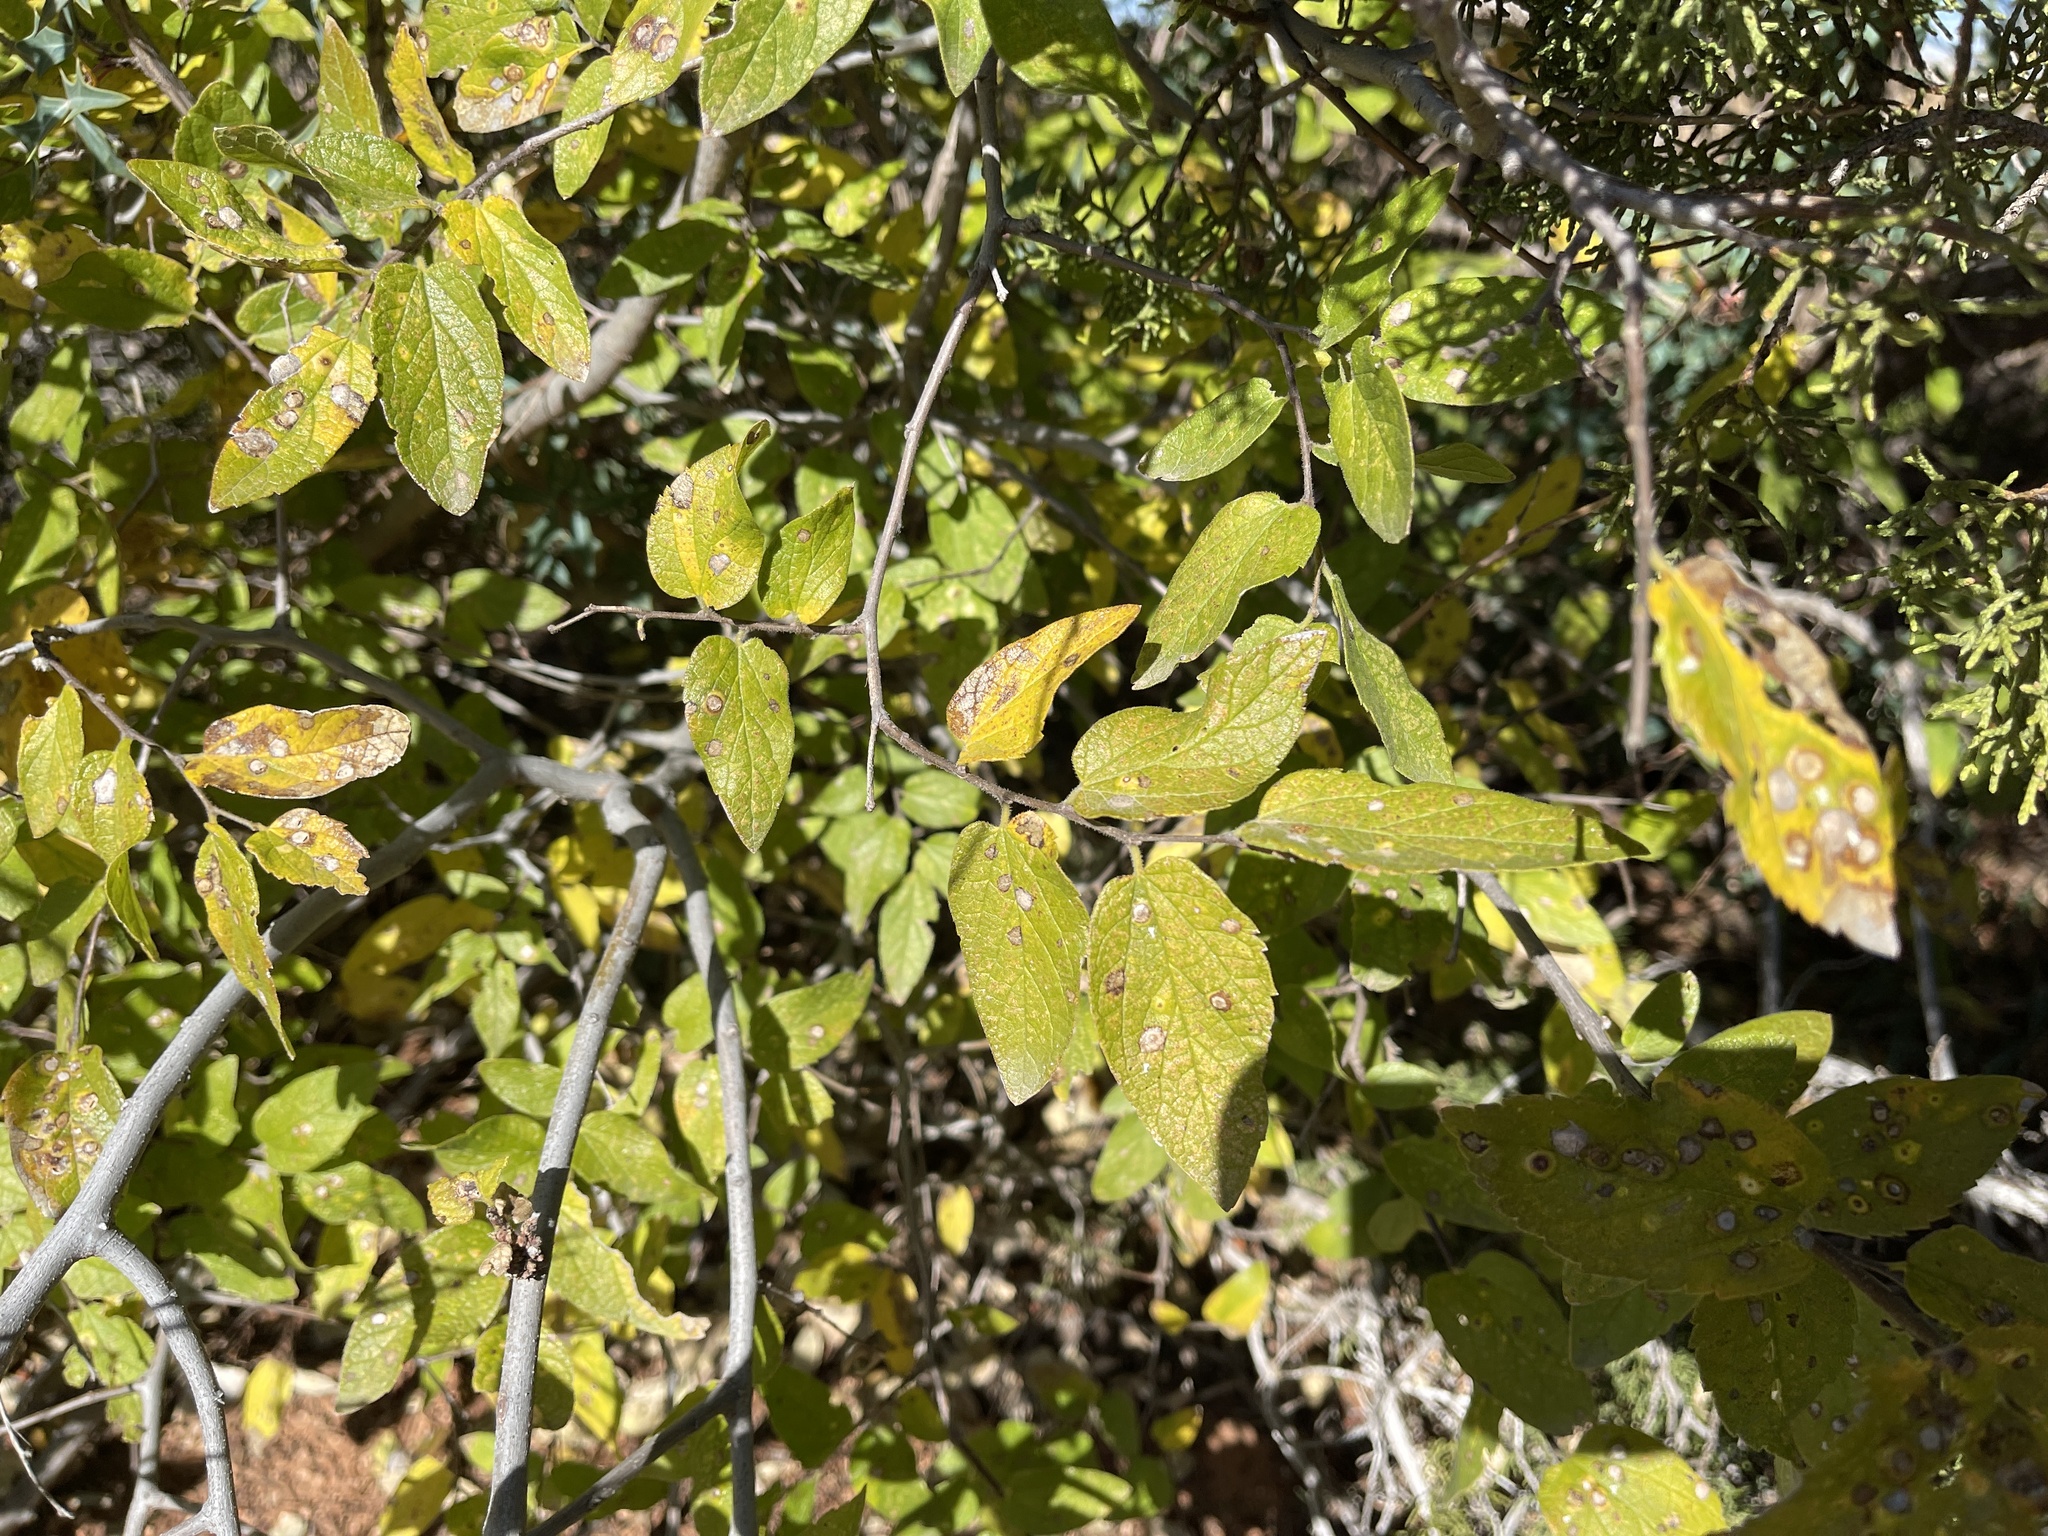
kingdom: Plantae
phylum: Tracheophyta
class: Magnoliopsida
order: Rosales
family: Cannabaceae
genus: Celtis
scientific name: Celtis reticulata
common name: Netleaf hackberry
